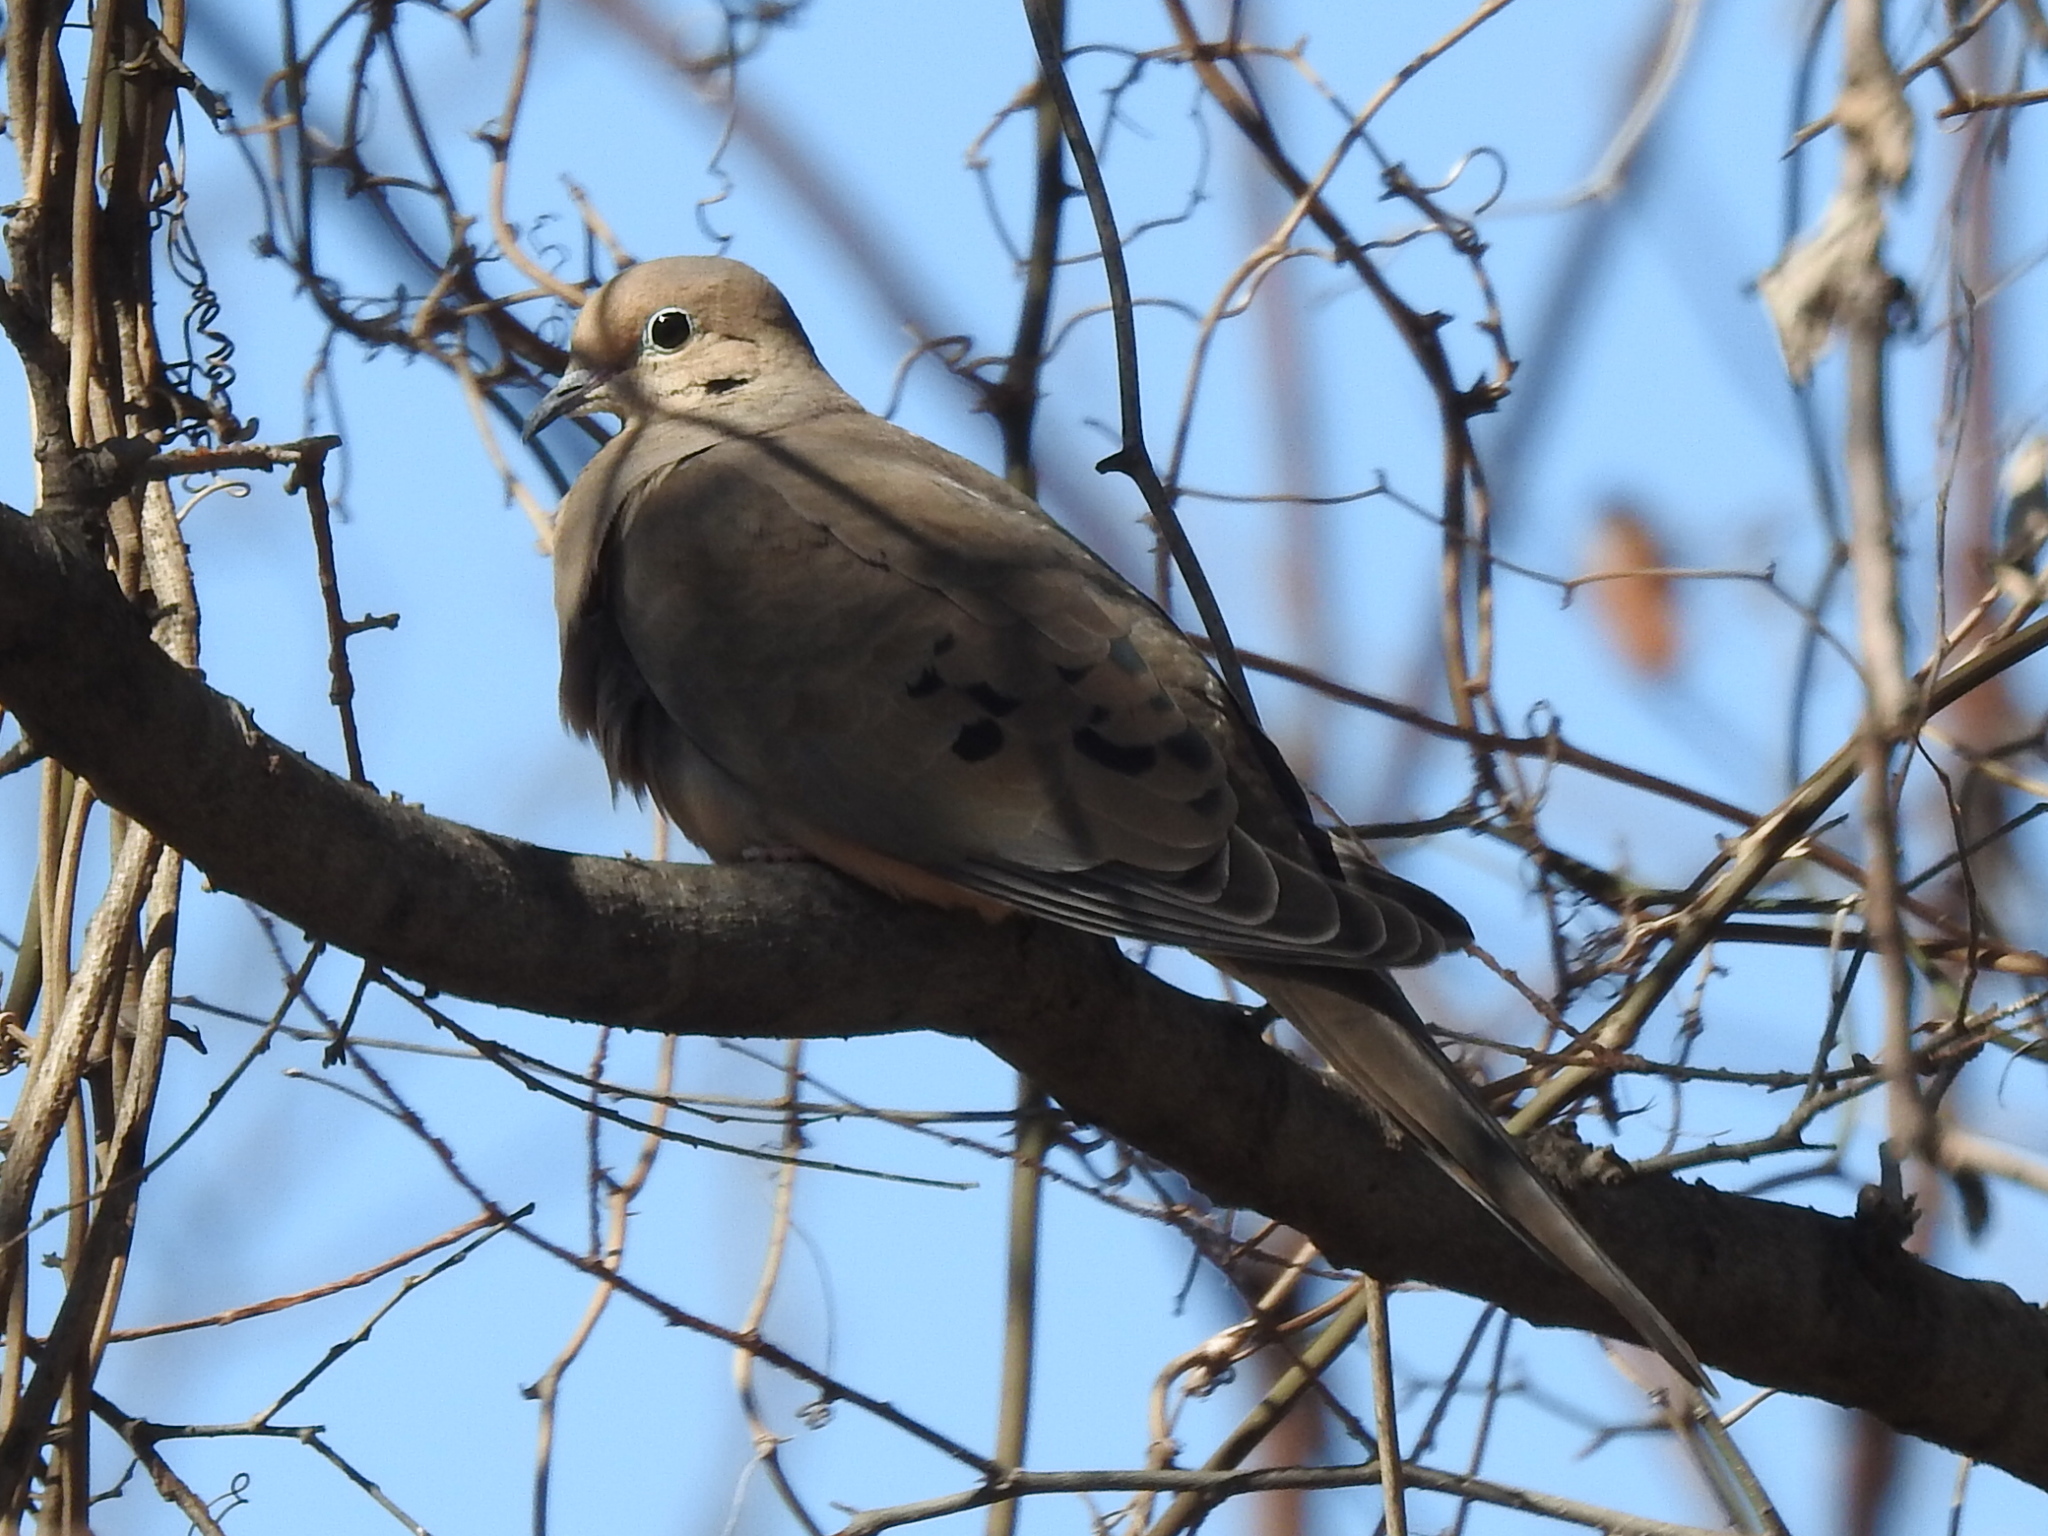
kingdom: Animalia
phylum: Chordata
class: Aves
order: Columbiformes
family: Columbidae
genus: Zenaida
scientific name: Zenaida macroura
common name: Mourning dove
